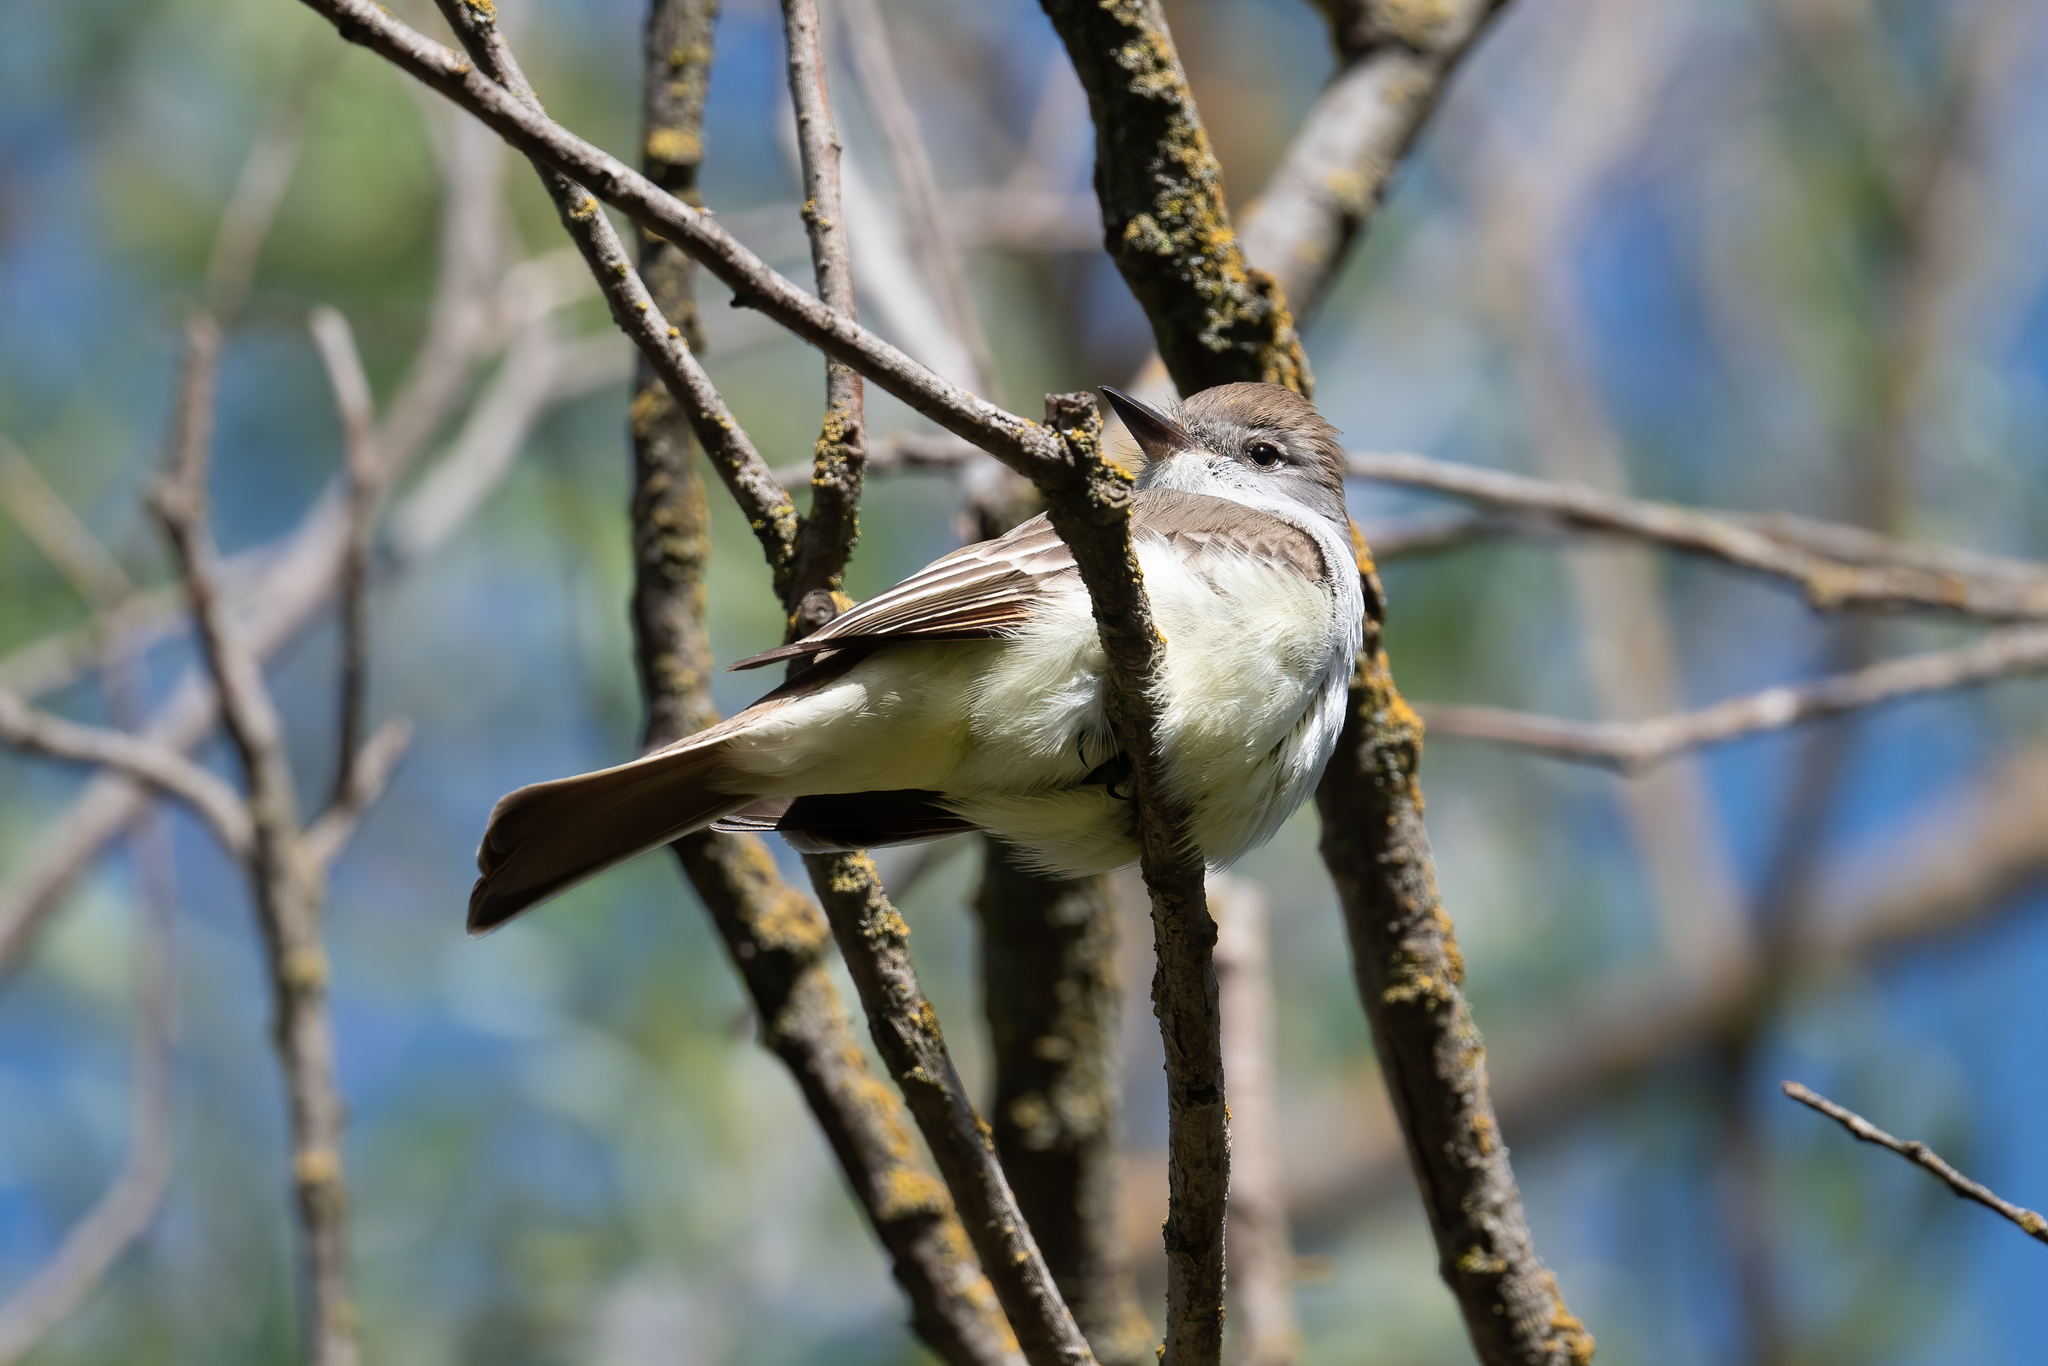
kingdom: Animalia
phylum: Chordata
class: Aves
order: Passeriformes
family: Tyrannidae
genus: Myiarchus
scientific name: Myiarchus cinerascens
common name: Ash-throated flycatcher
